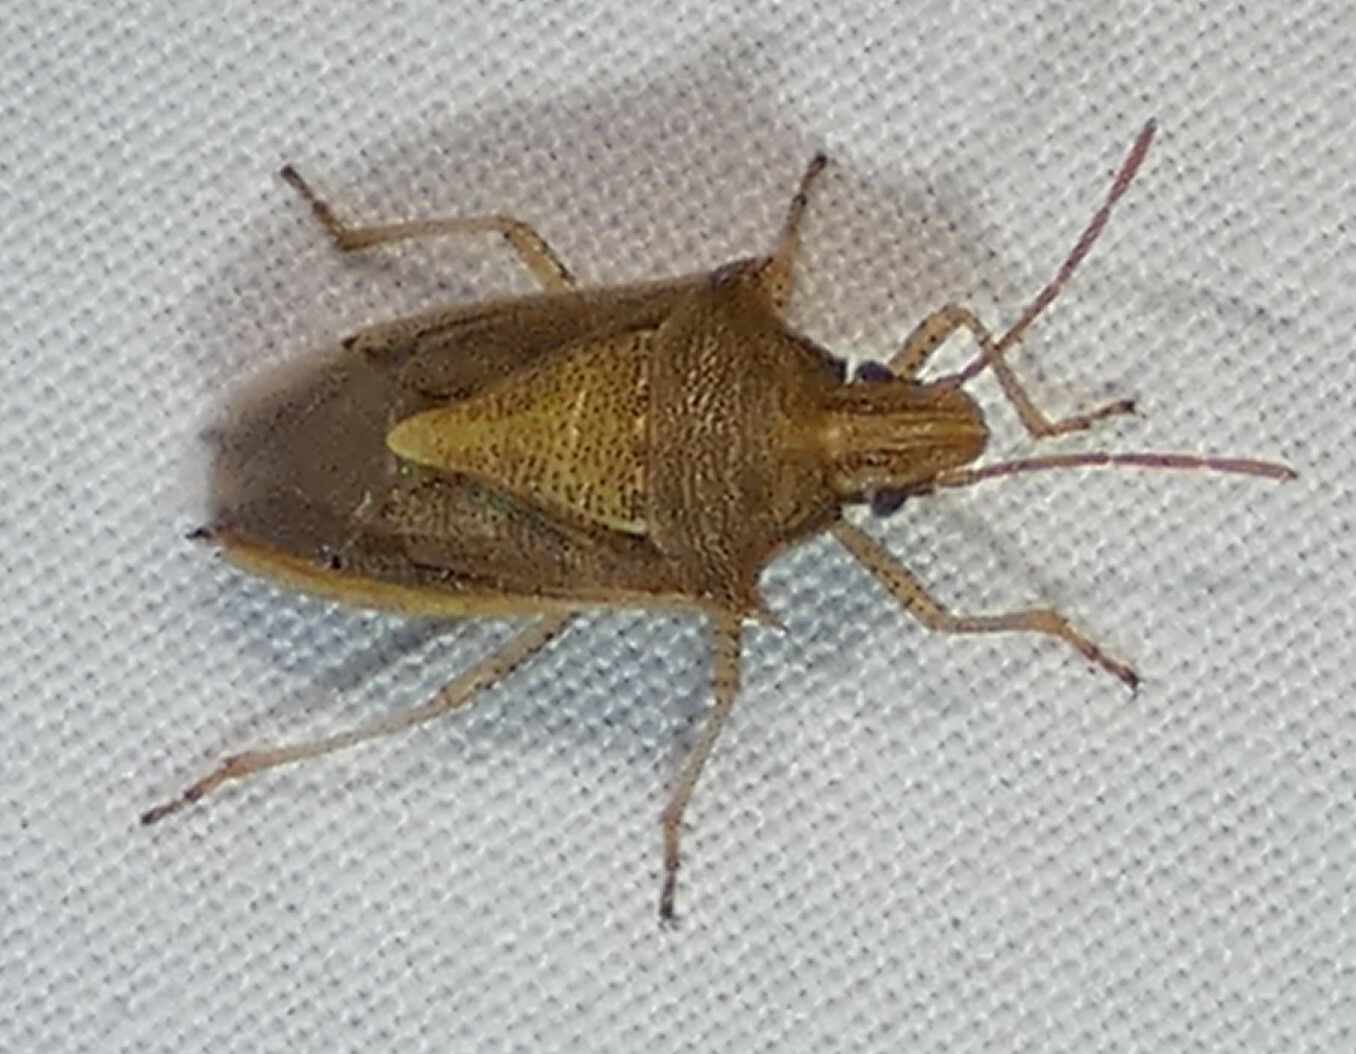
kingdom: Animalia
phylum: Arthropoda
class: Insecta
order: Hemiptera
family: Pentatomidae
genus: Oebalus
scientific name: Oebalus pugnax
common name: Rice stink bug
